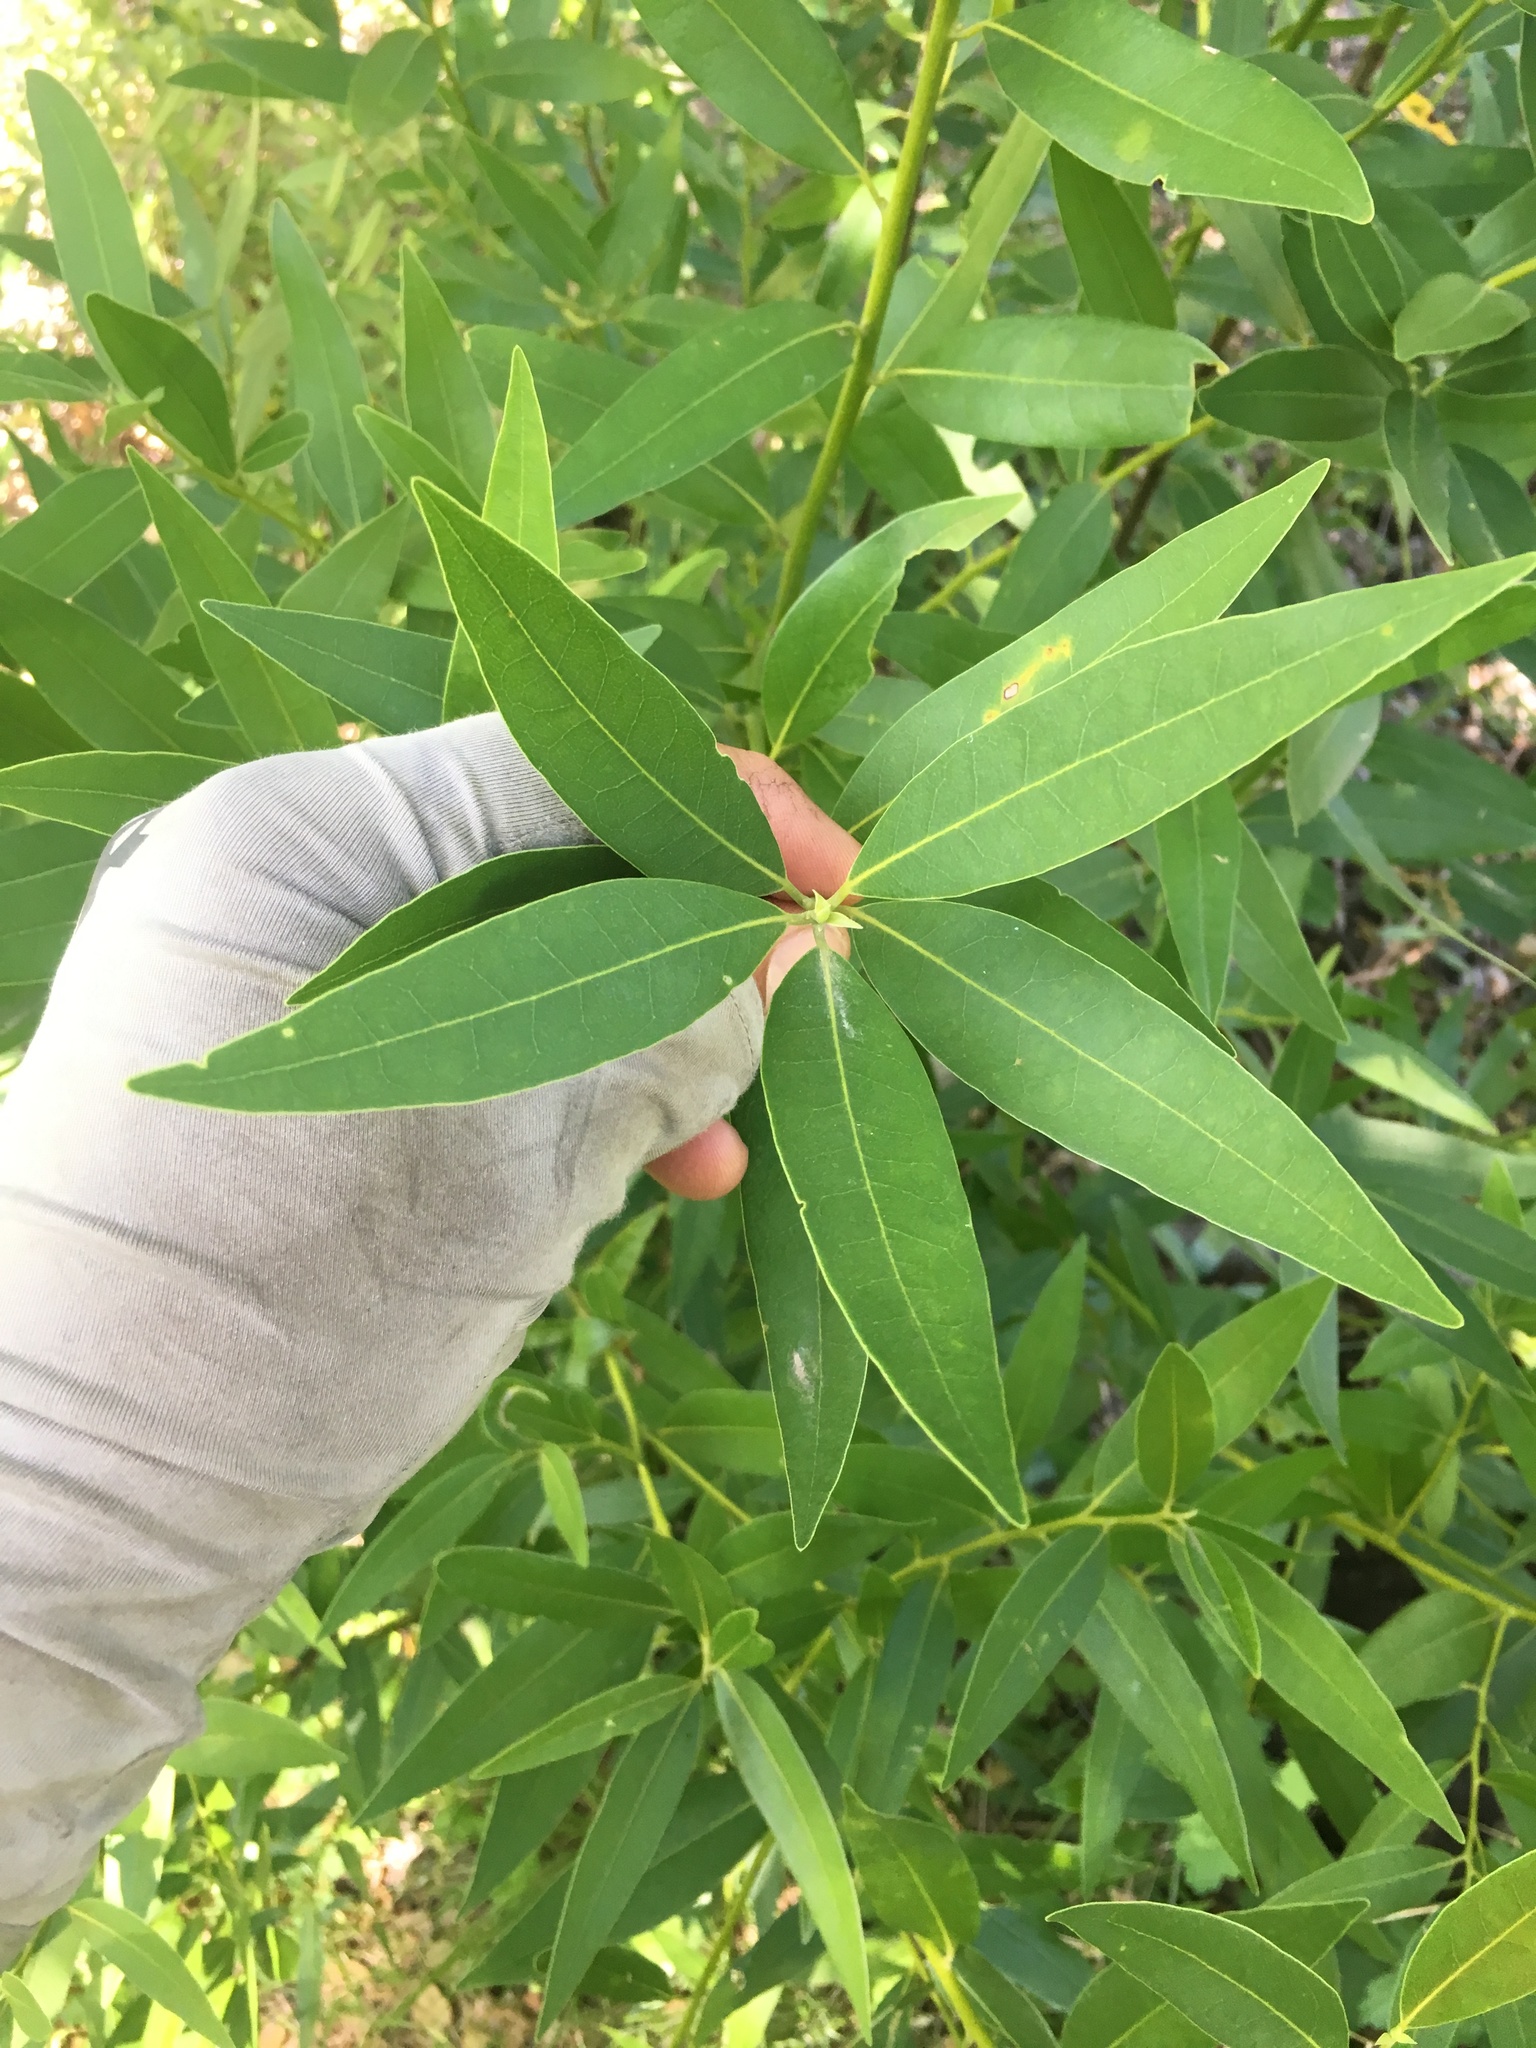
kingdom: Plantae
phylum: Tracheophyta
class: Magnoliopsida
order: Laurales
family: Lauraceae
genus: Umbellularia
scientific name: Umbellularia californica
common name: California bay
